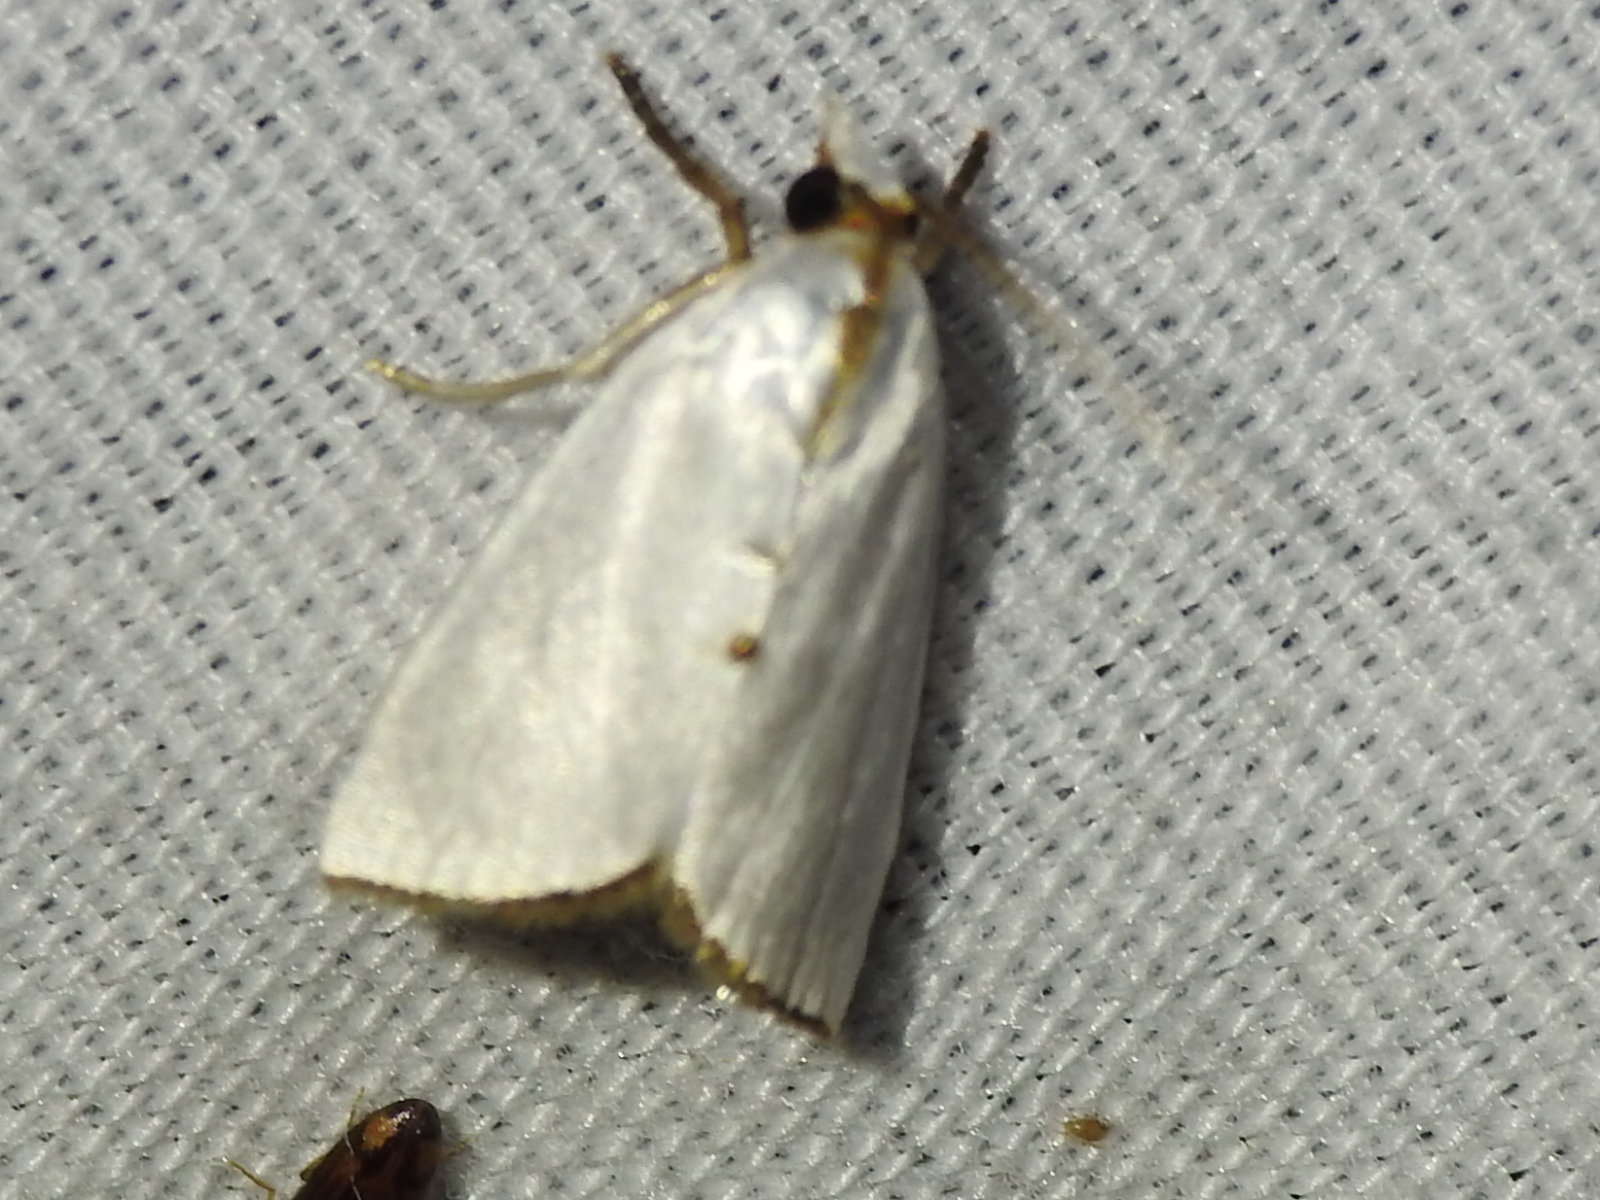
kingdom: Animalia
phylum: Arthropoda
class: Insecta
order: Lepidoptera
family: Crambidae
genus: Argyria
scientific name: Argyria nivalis
